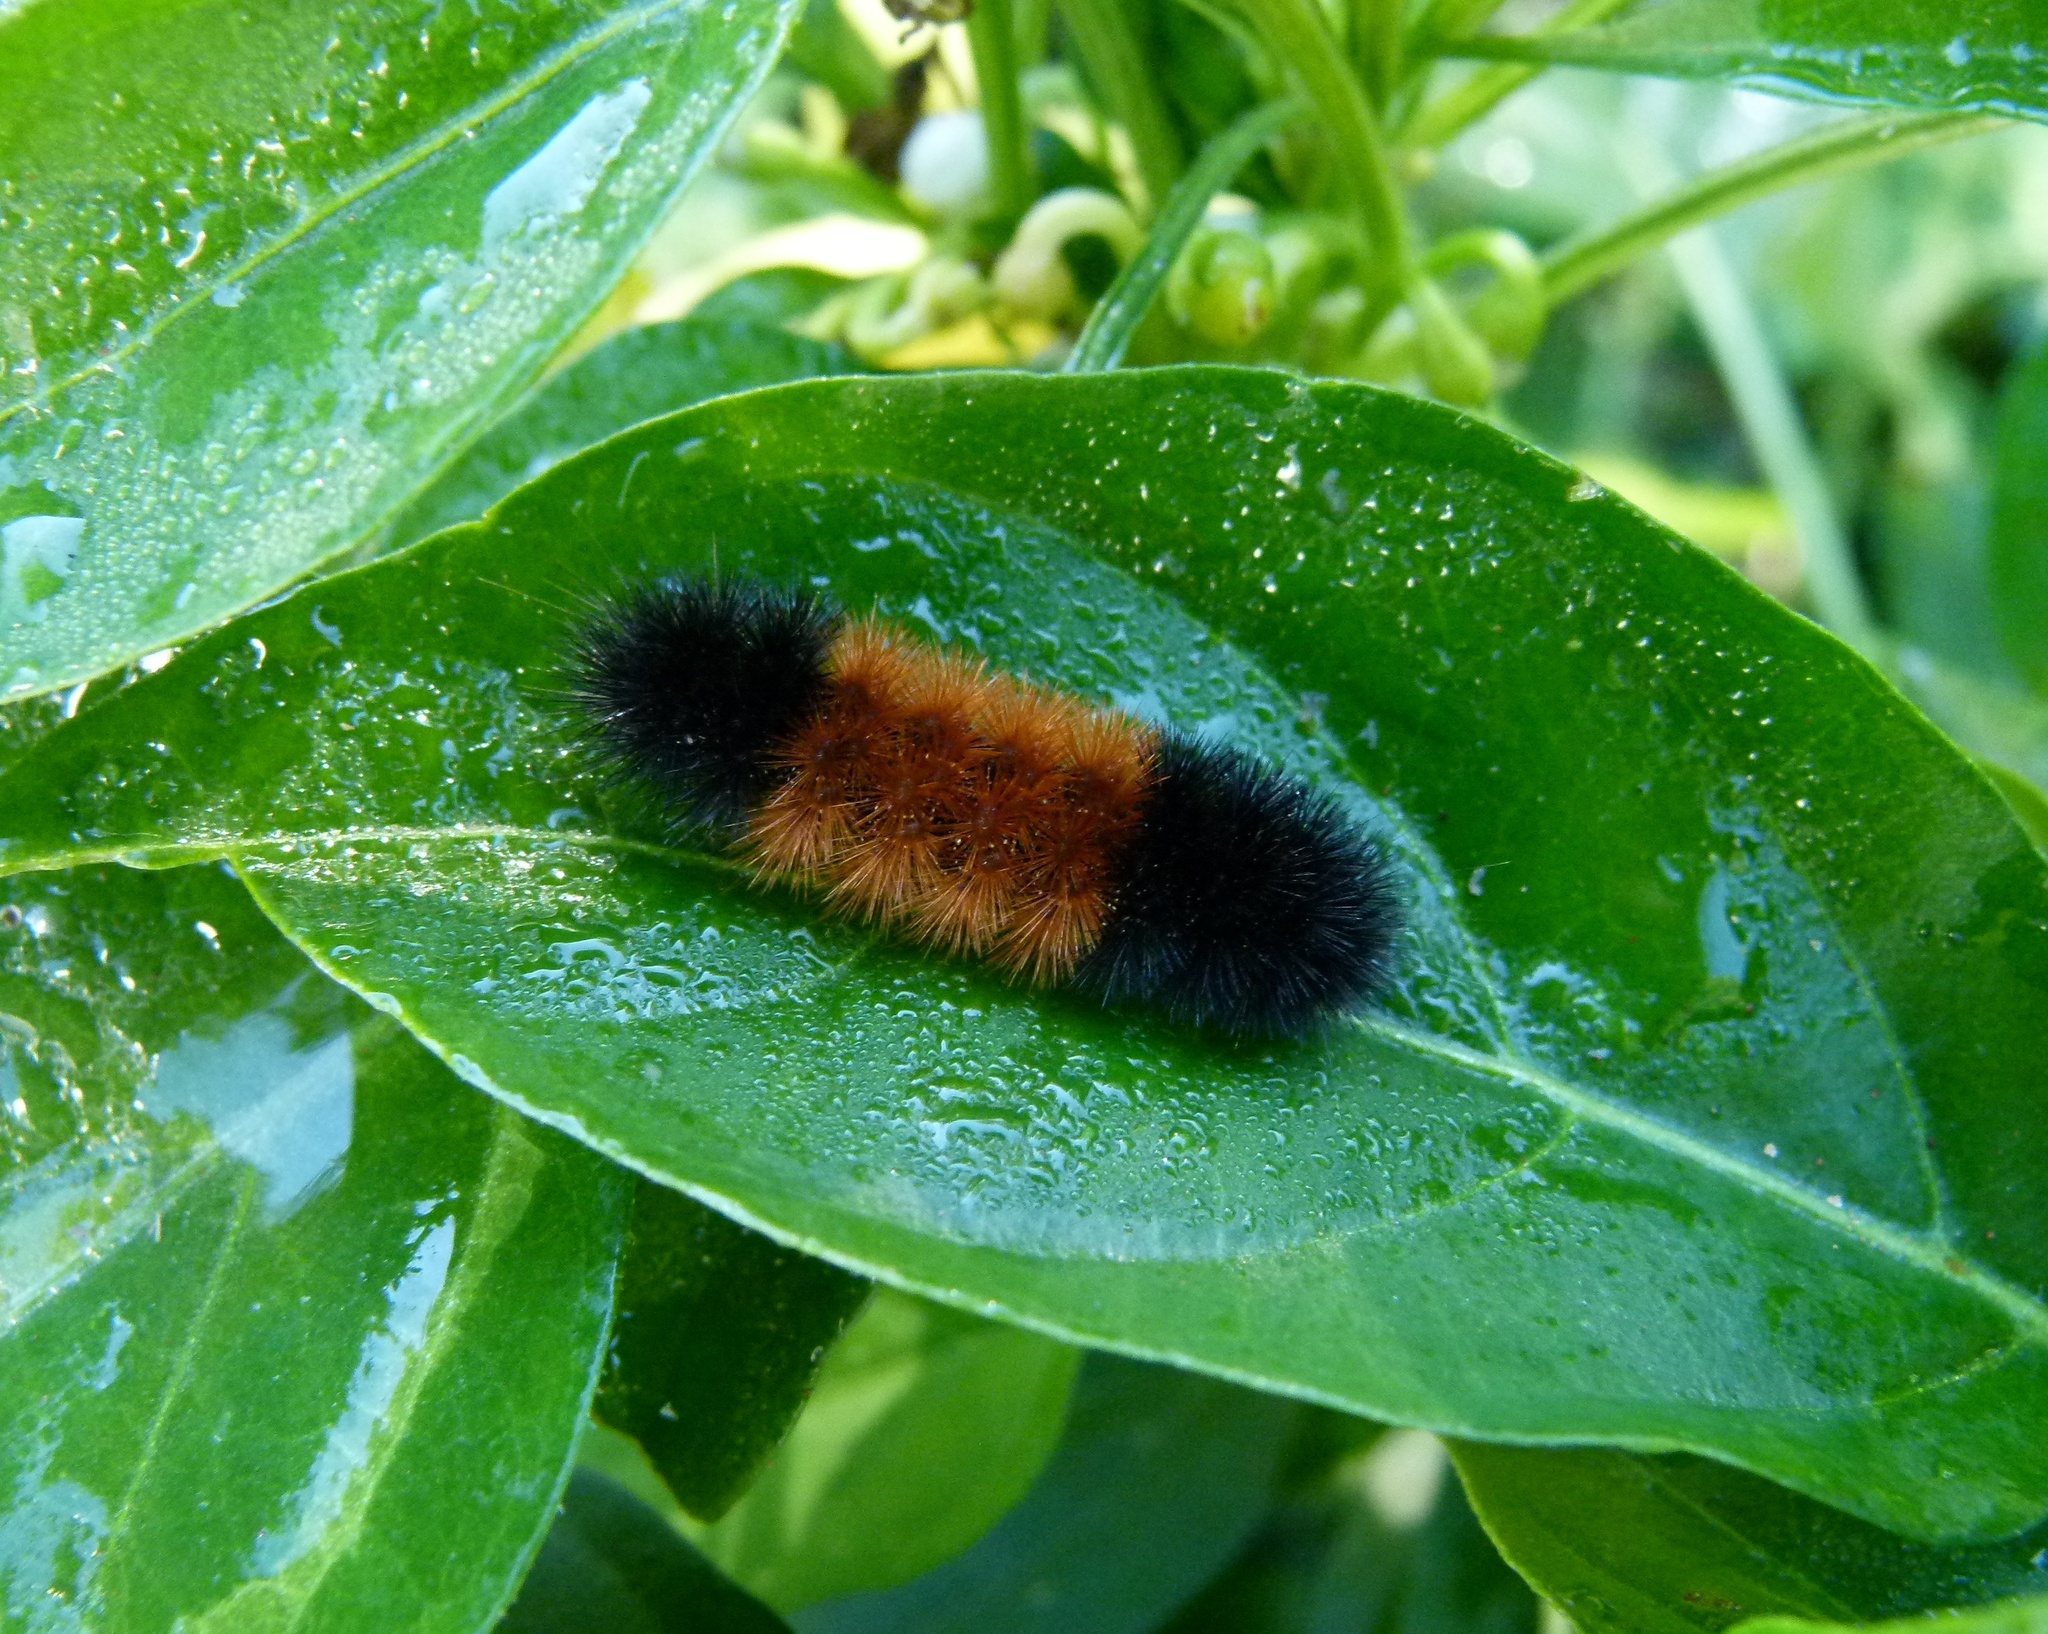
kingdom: Animalia
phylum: Arthropoda
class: Insecta
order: Lepidoptera
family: Erebidae
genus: Pyrrharctia
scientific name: Pyrrharctia isabella
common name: Isabella tiger moth
